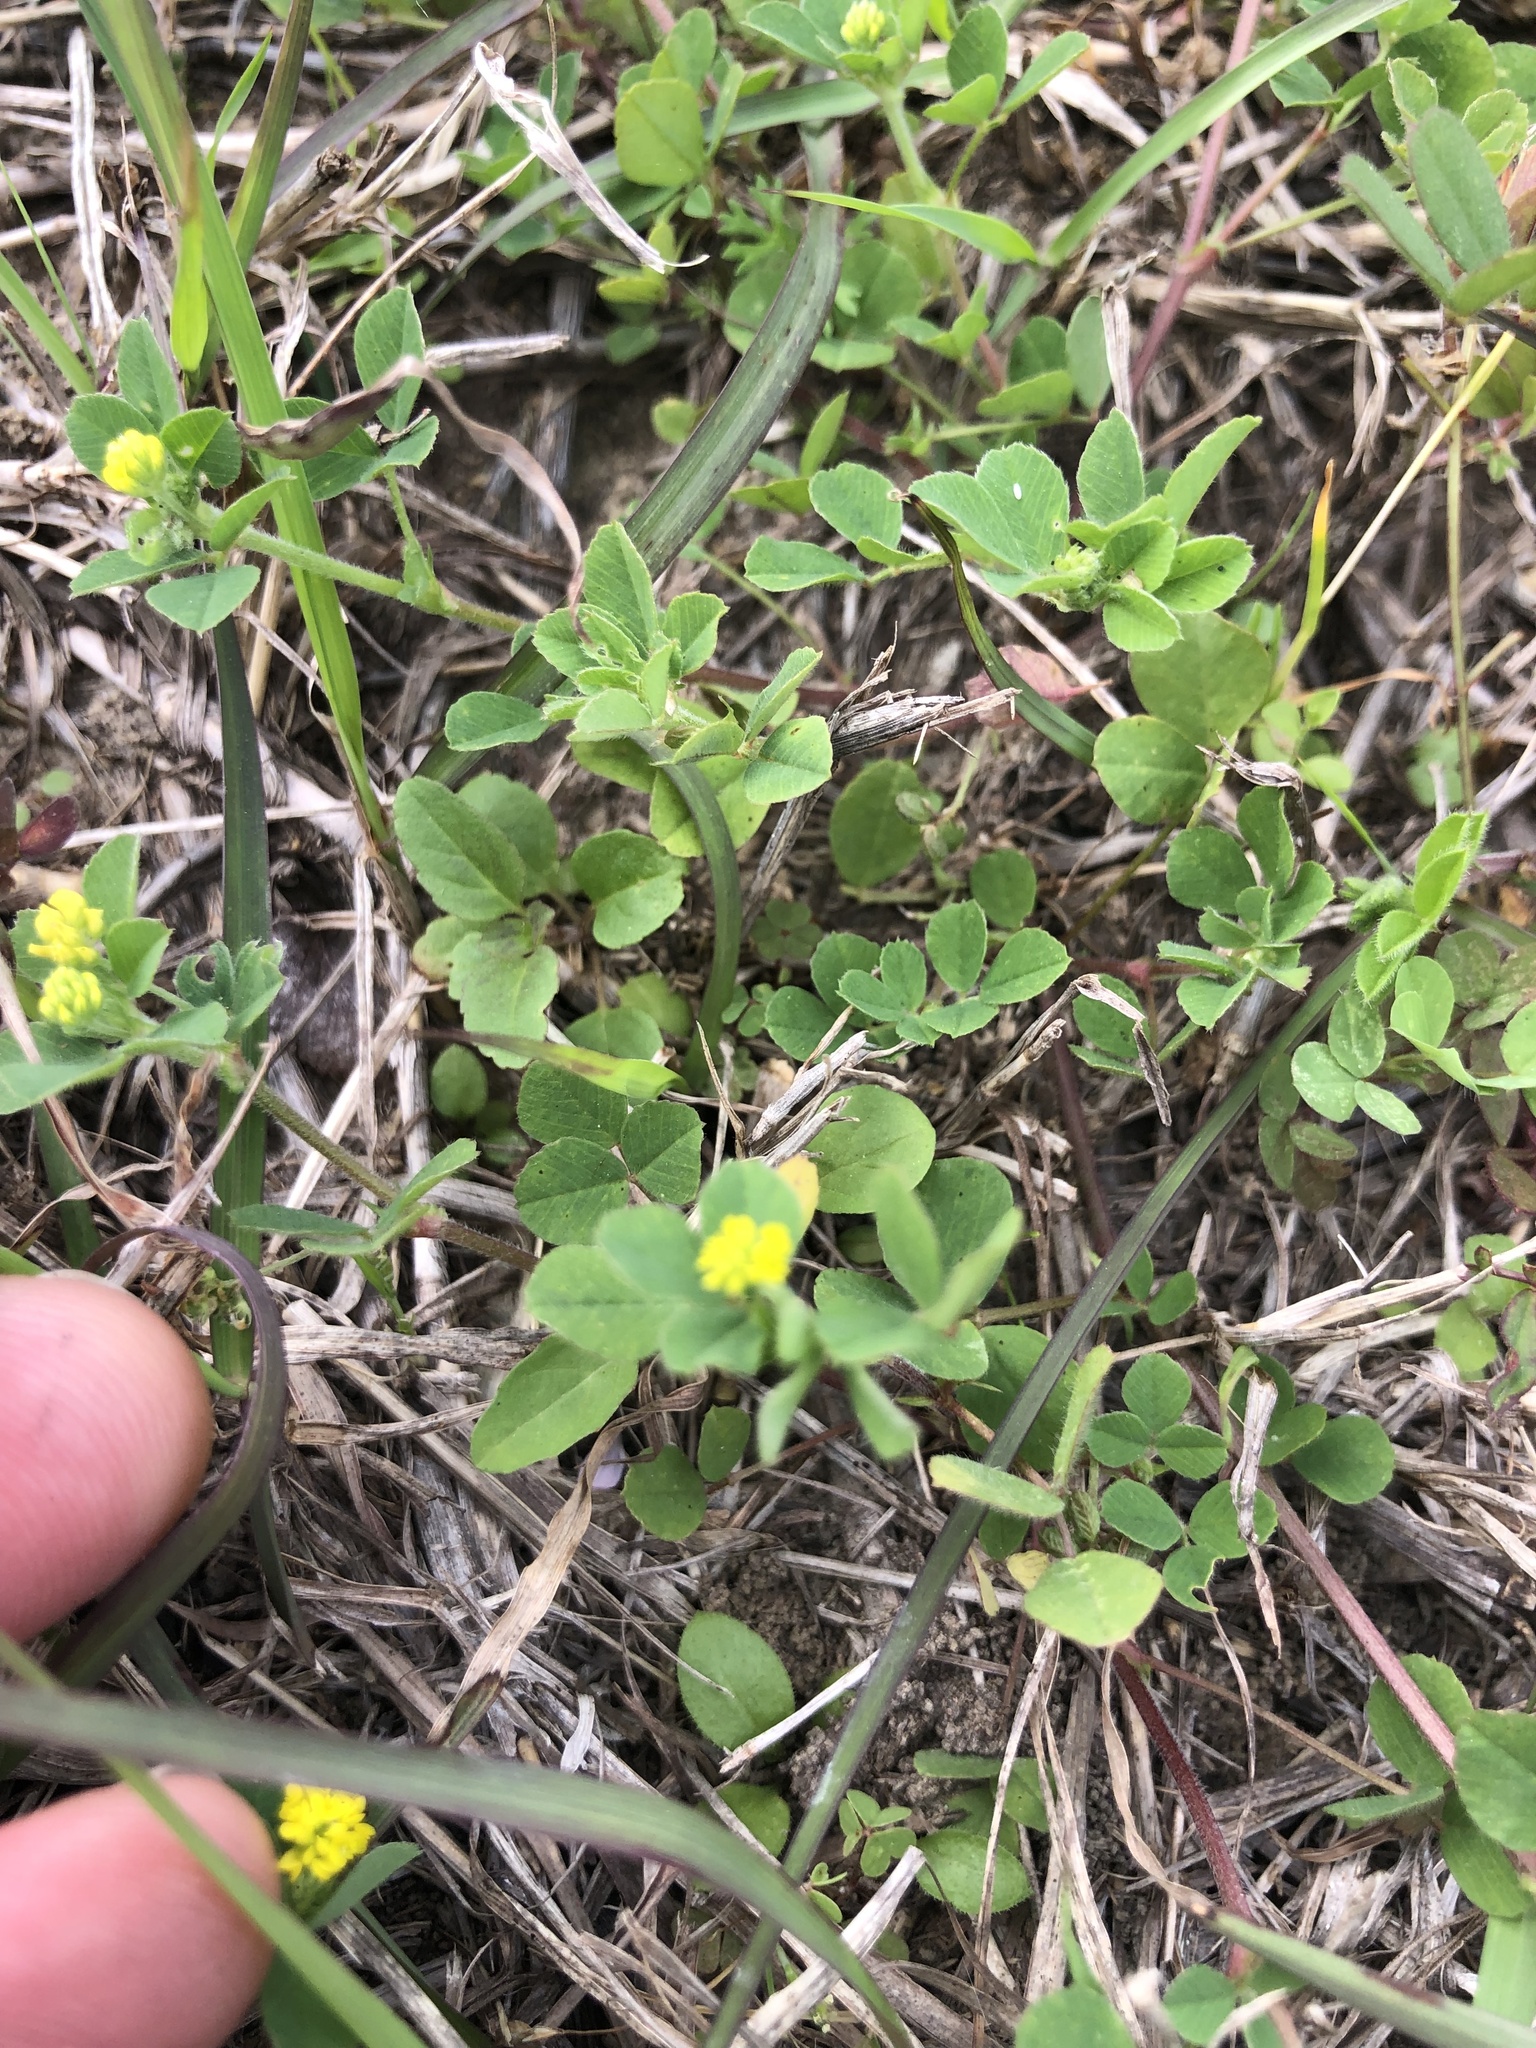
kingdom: Plantae
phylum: Tracheophyta
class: Magnoliopsida
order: Fabales
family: Fabaceae
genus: Medicago
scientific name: Medicago lupulina
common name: Black medick
